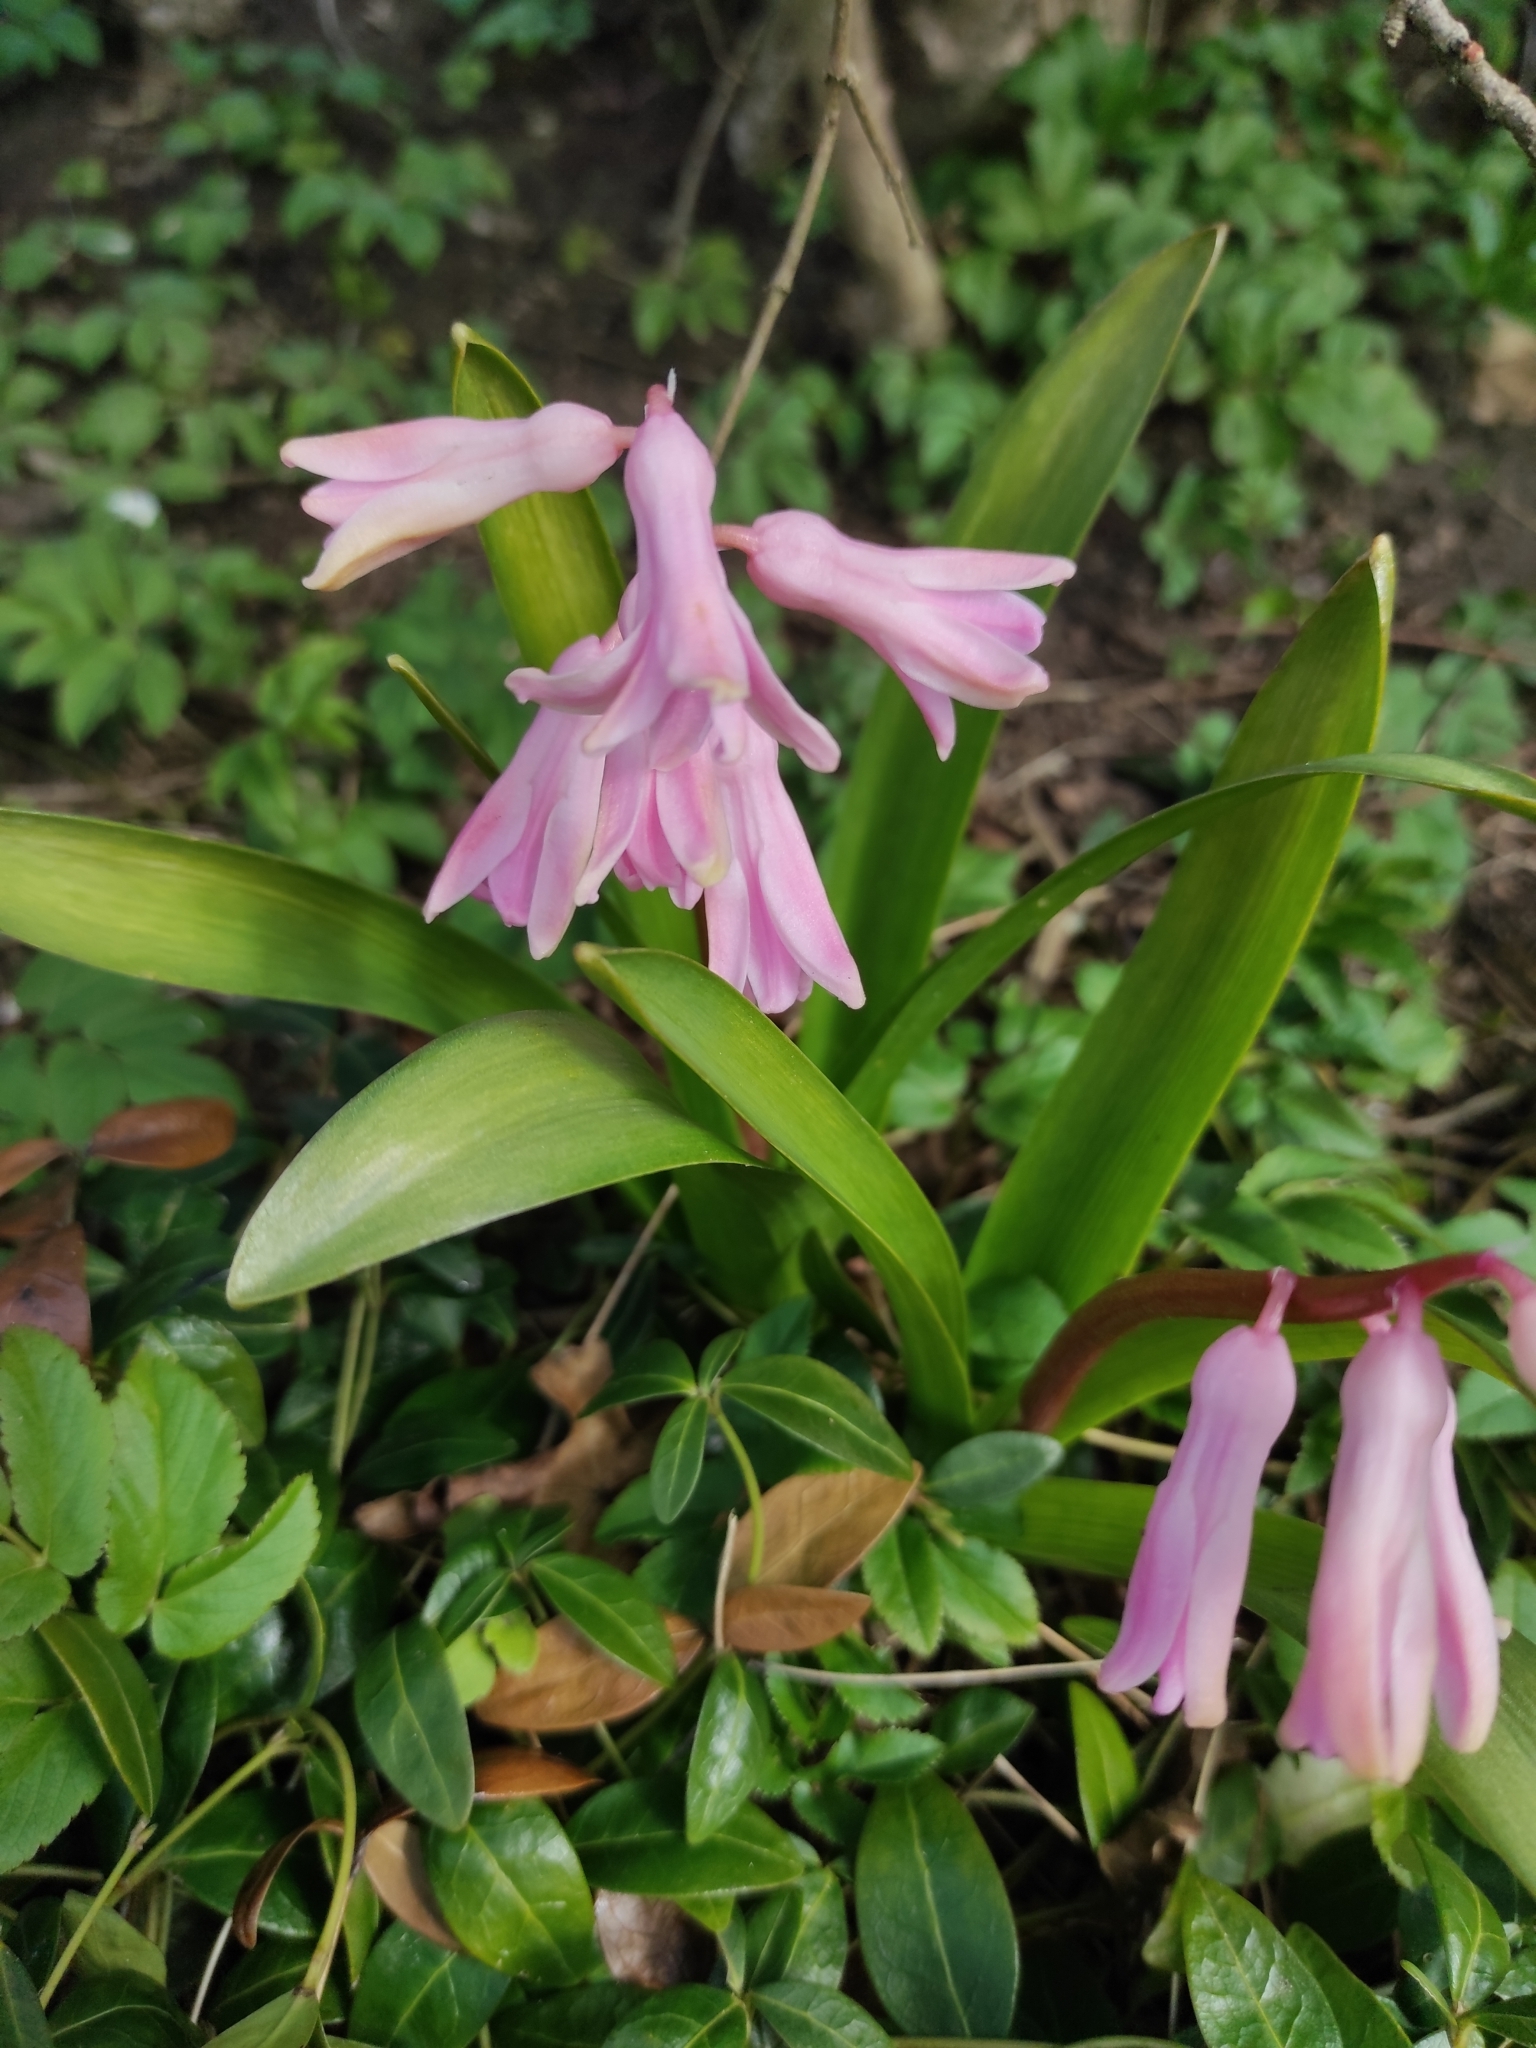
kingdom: Plantae
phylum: Tracheophyta
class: Liliopsida
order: Asparagales
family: Asparagaceae
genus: Hyacinthus
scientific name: Hyacinthus orientalis
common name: Hyacinth
